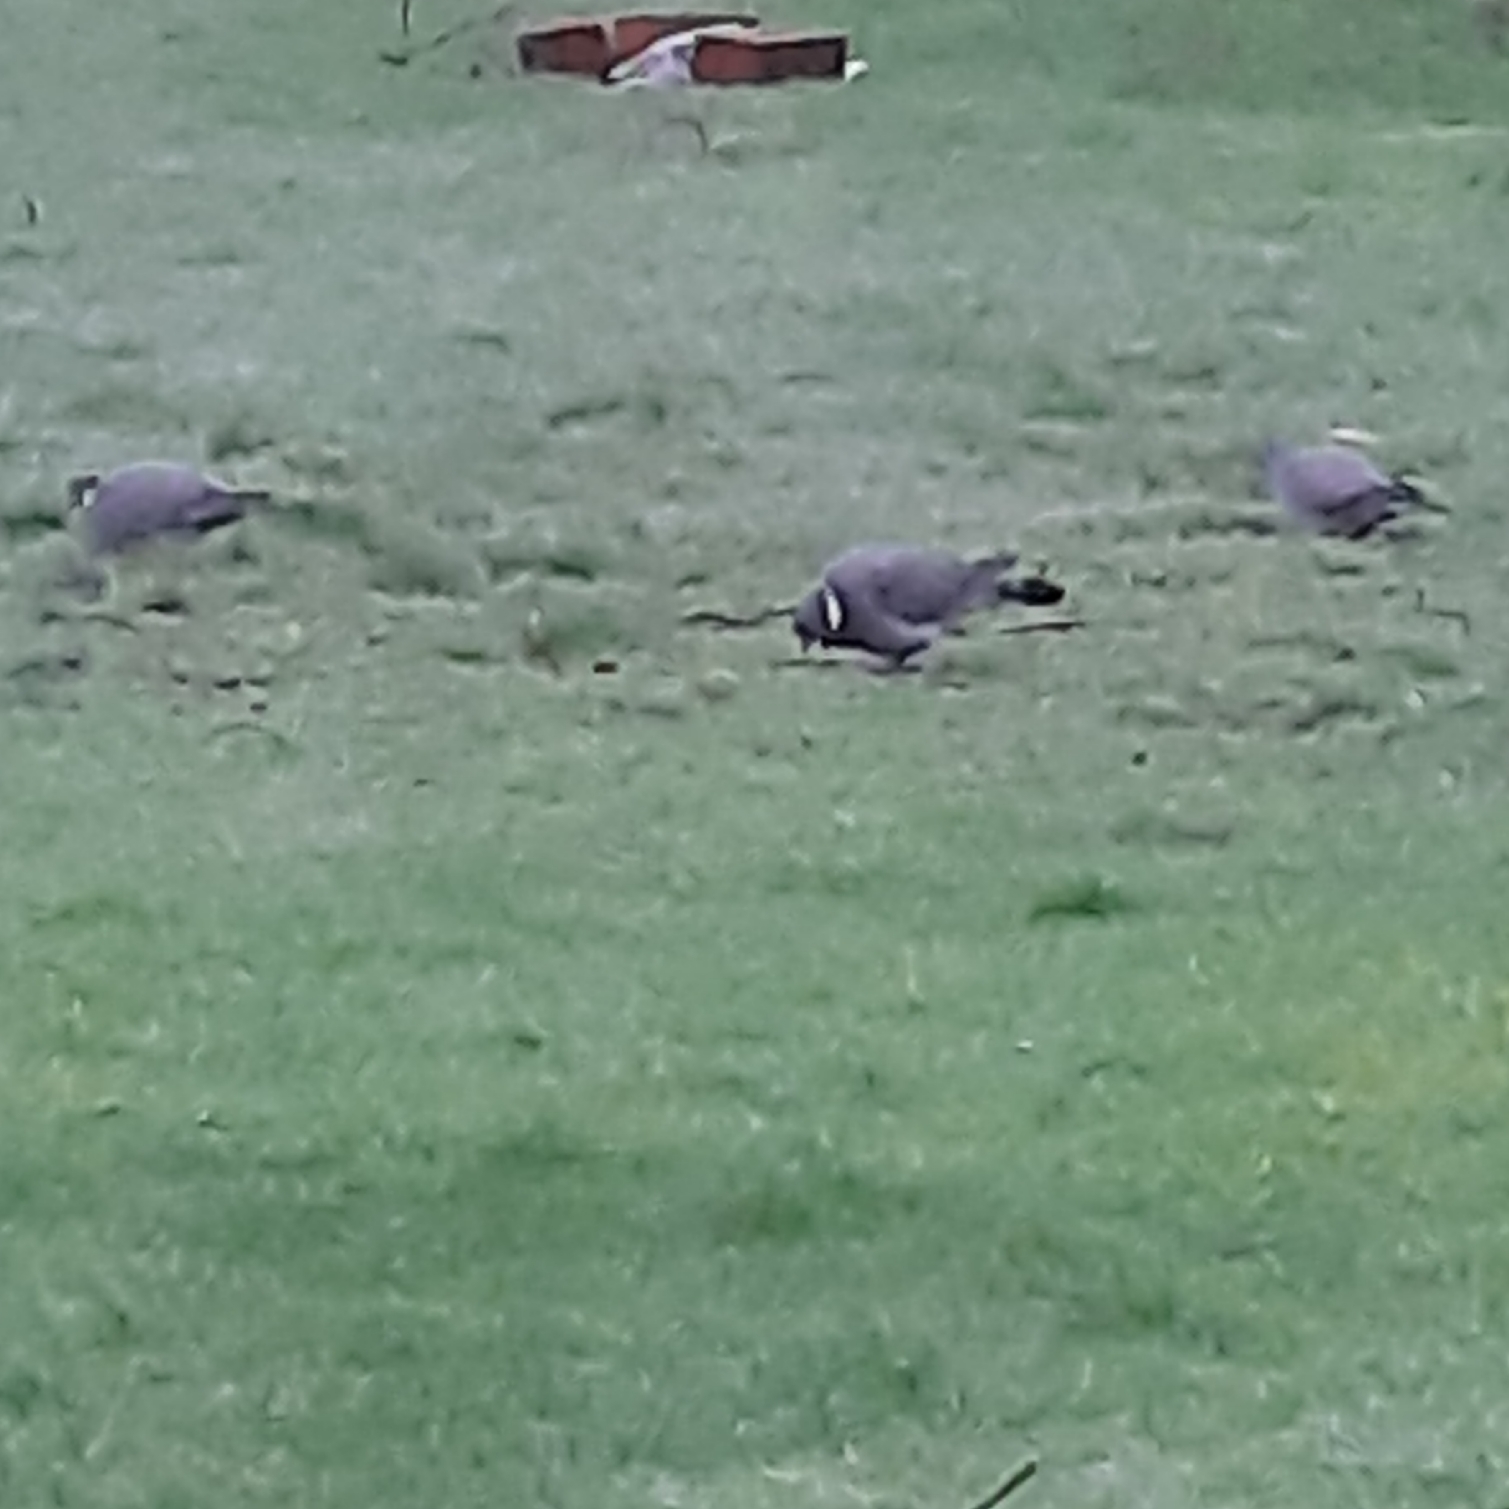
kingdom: Animalia
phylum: Chordata
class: Aves
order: Columbiformes
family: Columbidae
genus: Columba
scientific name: Columba palumbus
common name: Common wood pigeon
